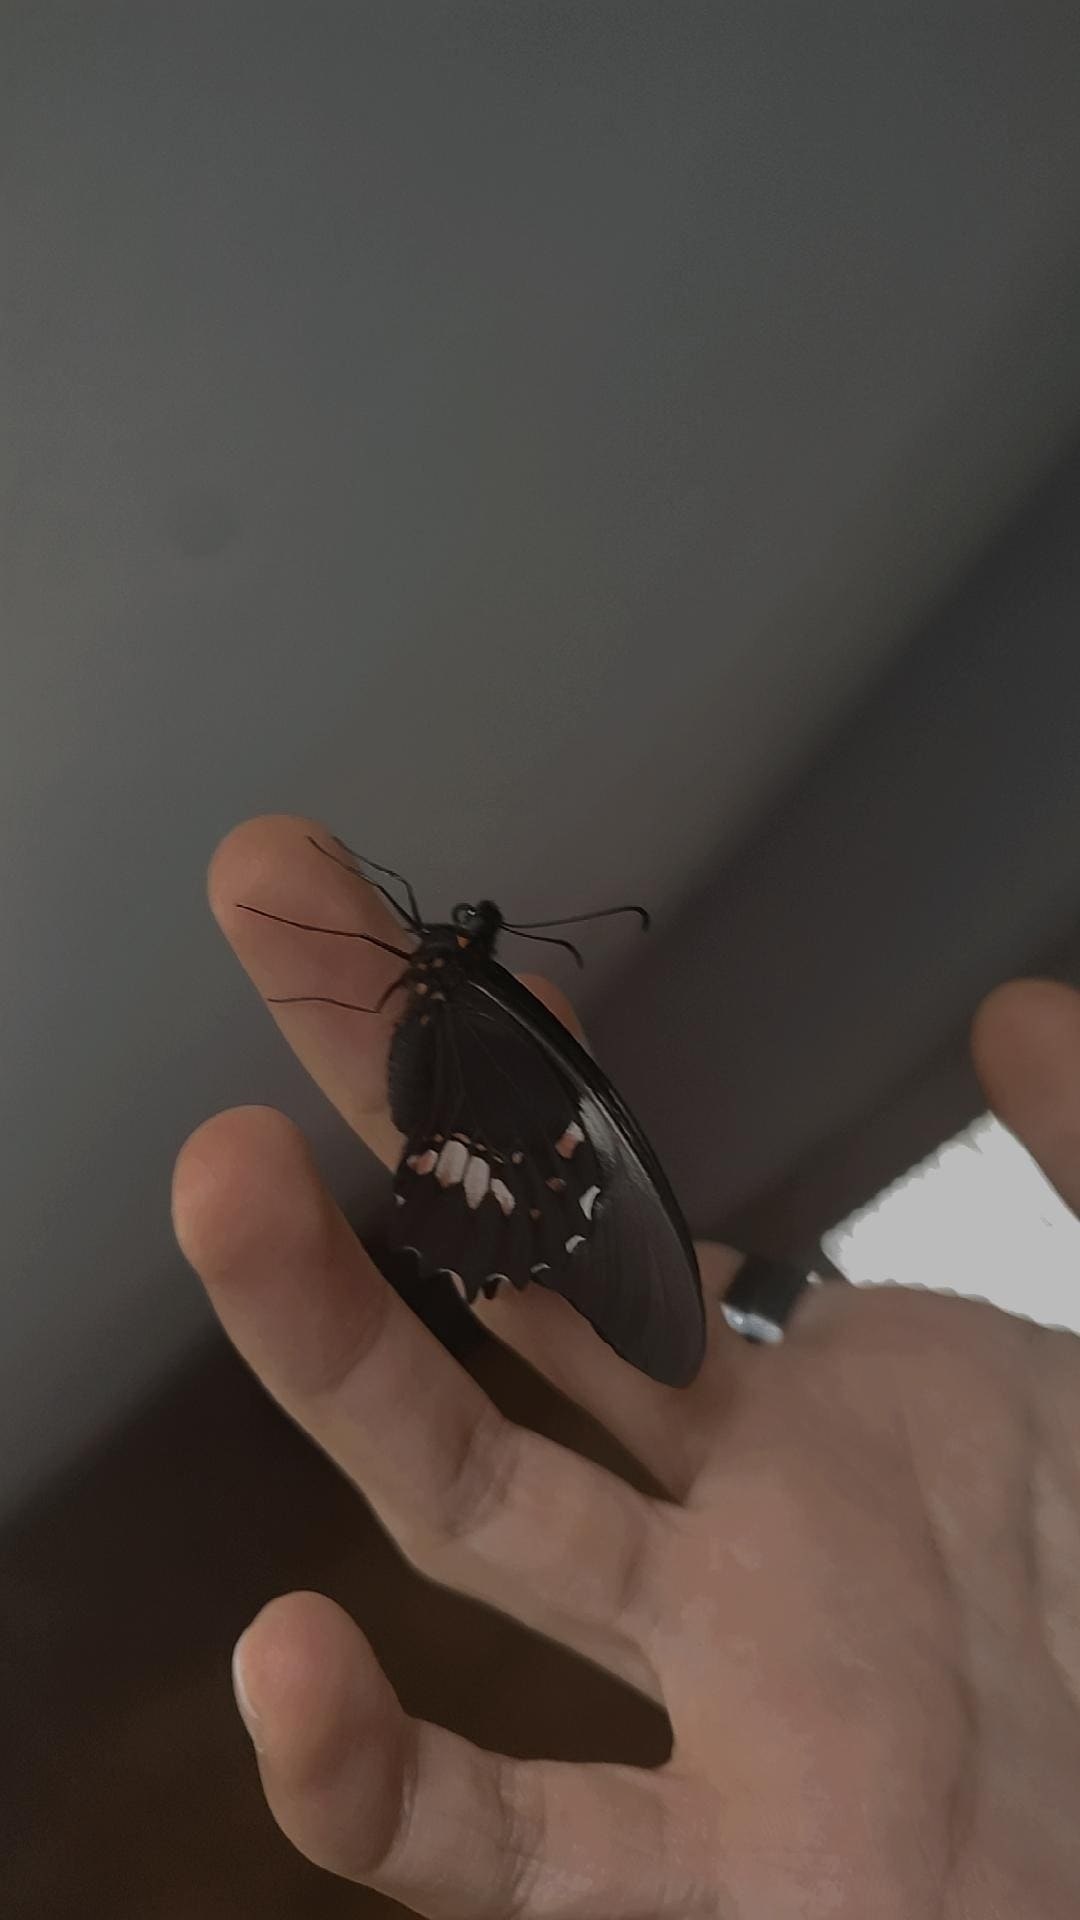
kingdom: Animalia
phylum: Arthropoda
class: Insecta
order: Lepidoptera
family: Papilionidae
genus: Papilio
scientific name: Papilio anchisiades
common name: Idaes swallowtail
